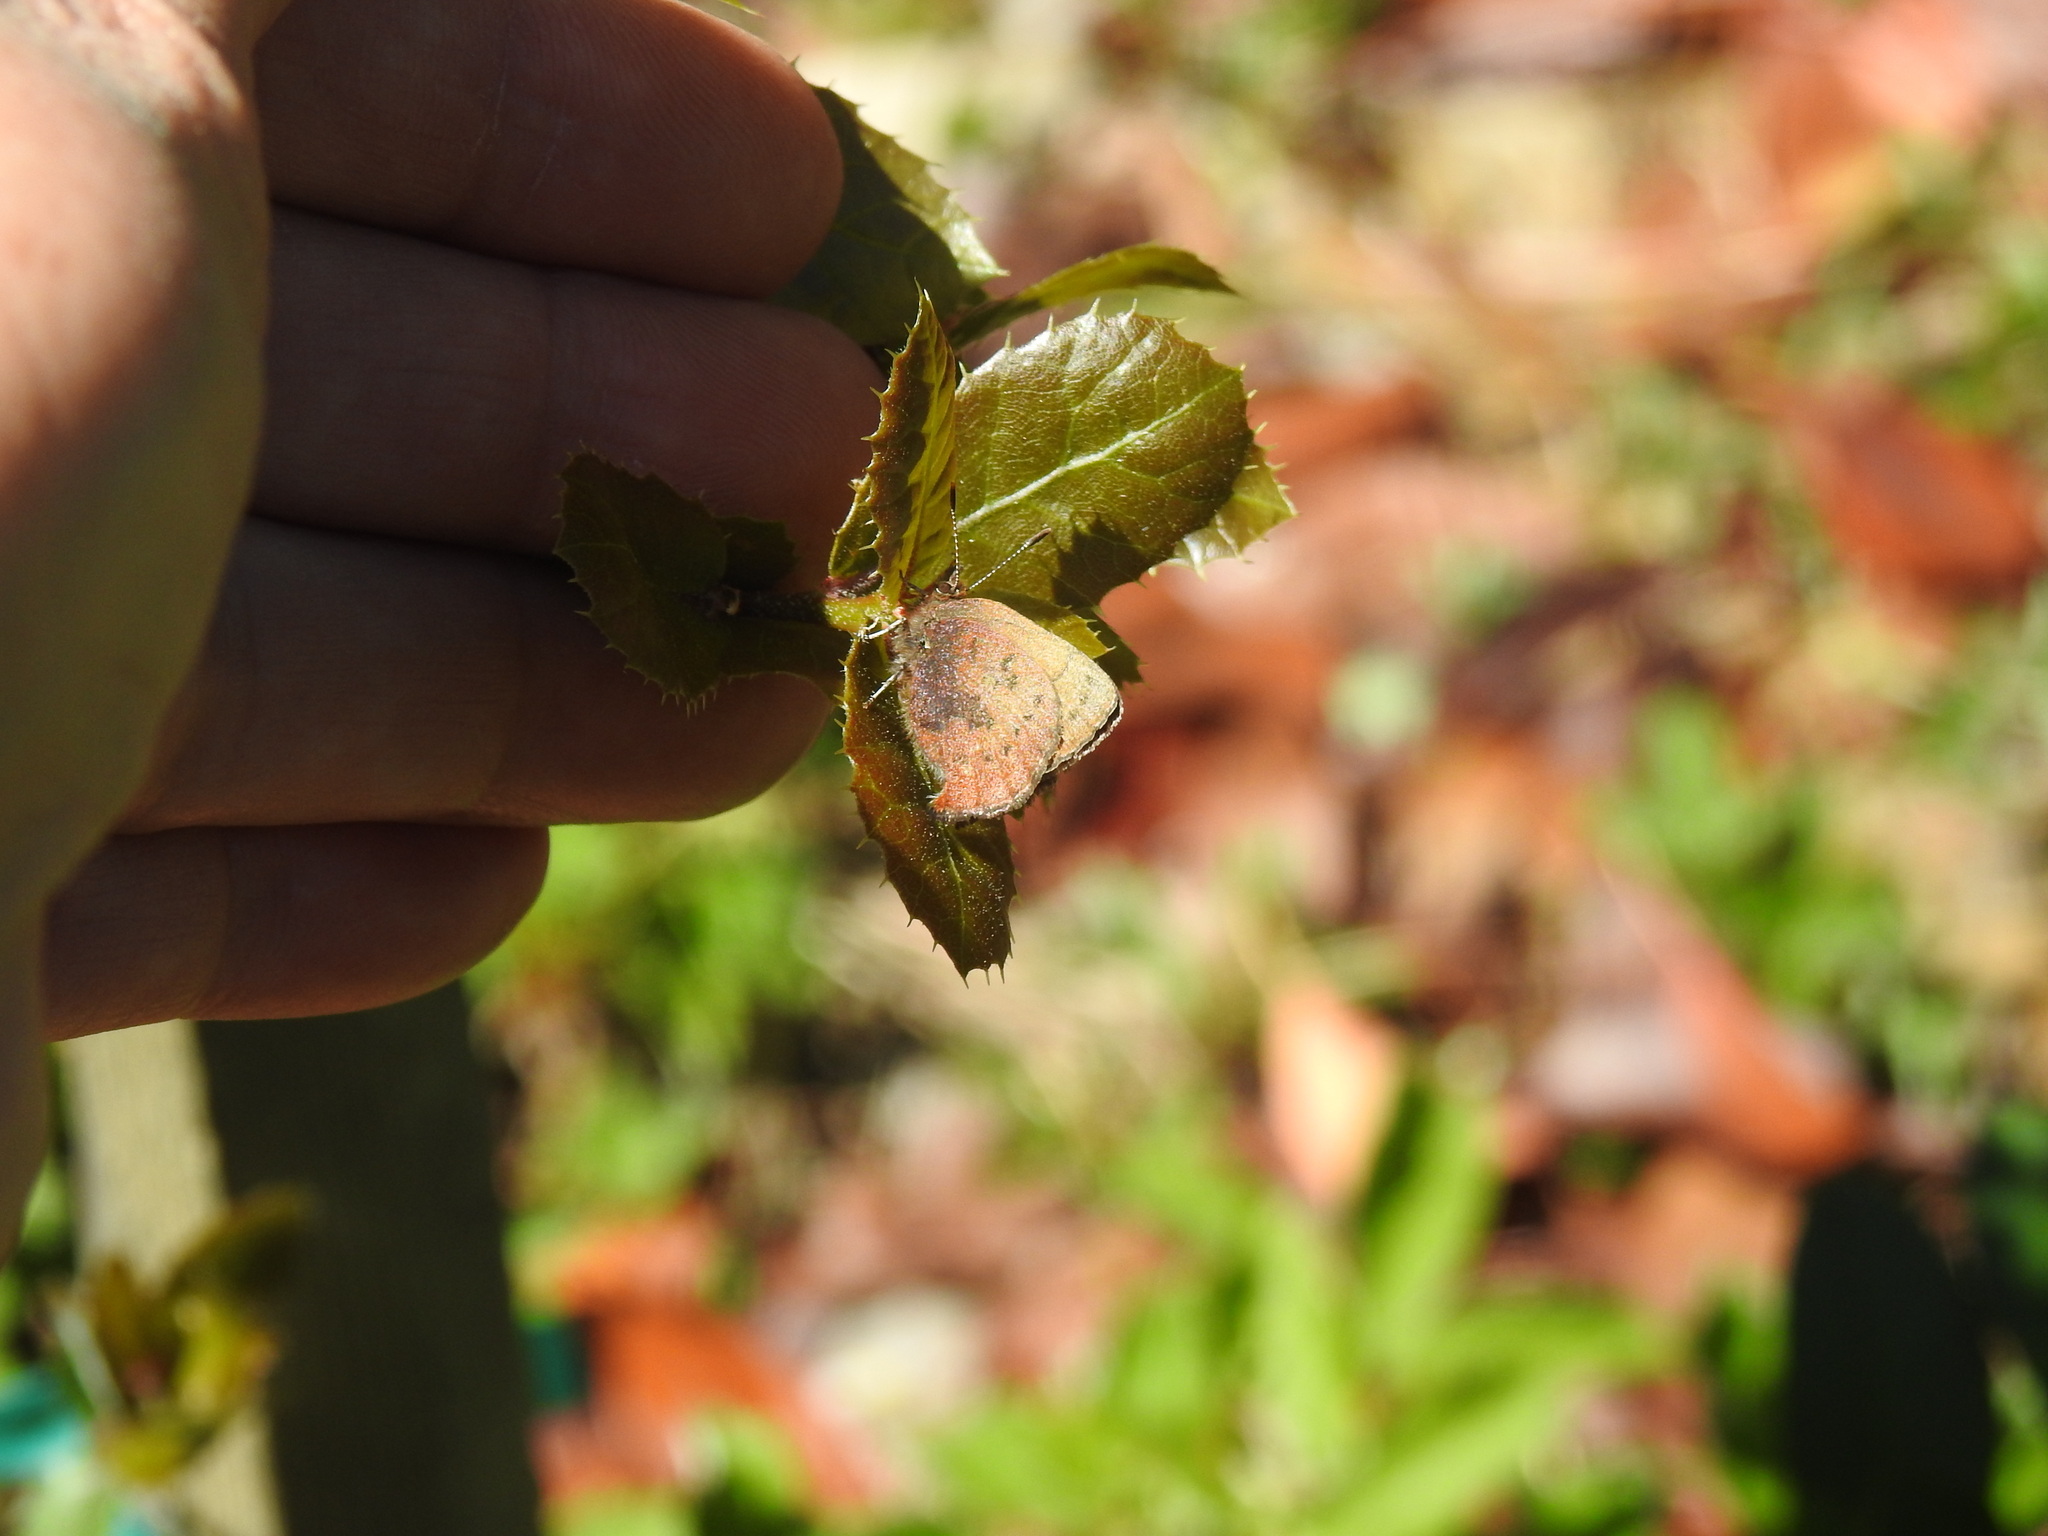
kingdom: Animalia
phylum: Arthropoda
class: Insecta
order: Lepidoptera
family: Lycaenidae
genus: Incisalia
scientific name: Incisalia irioides
